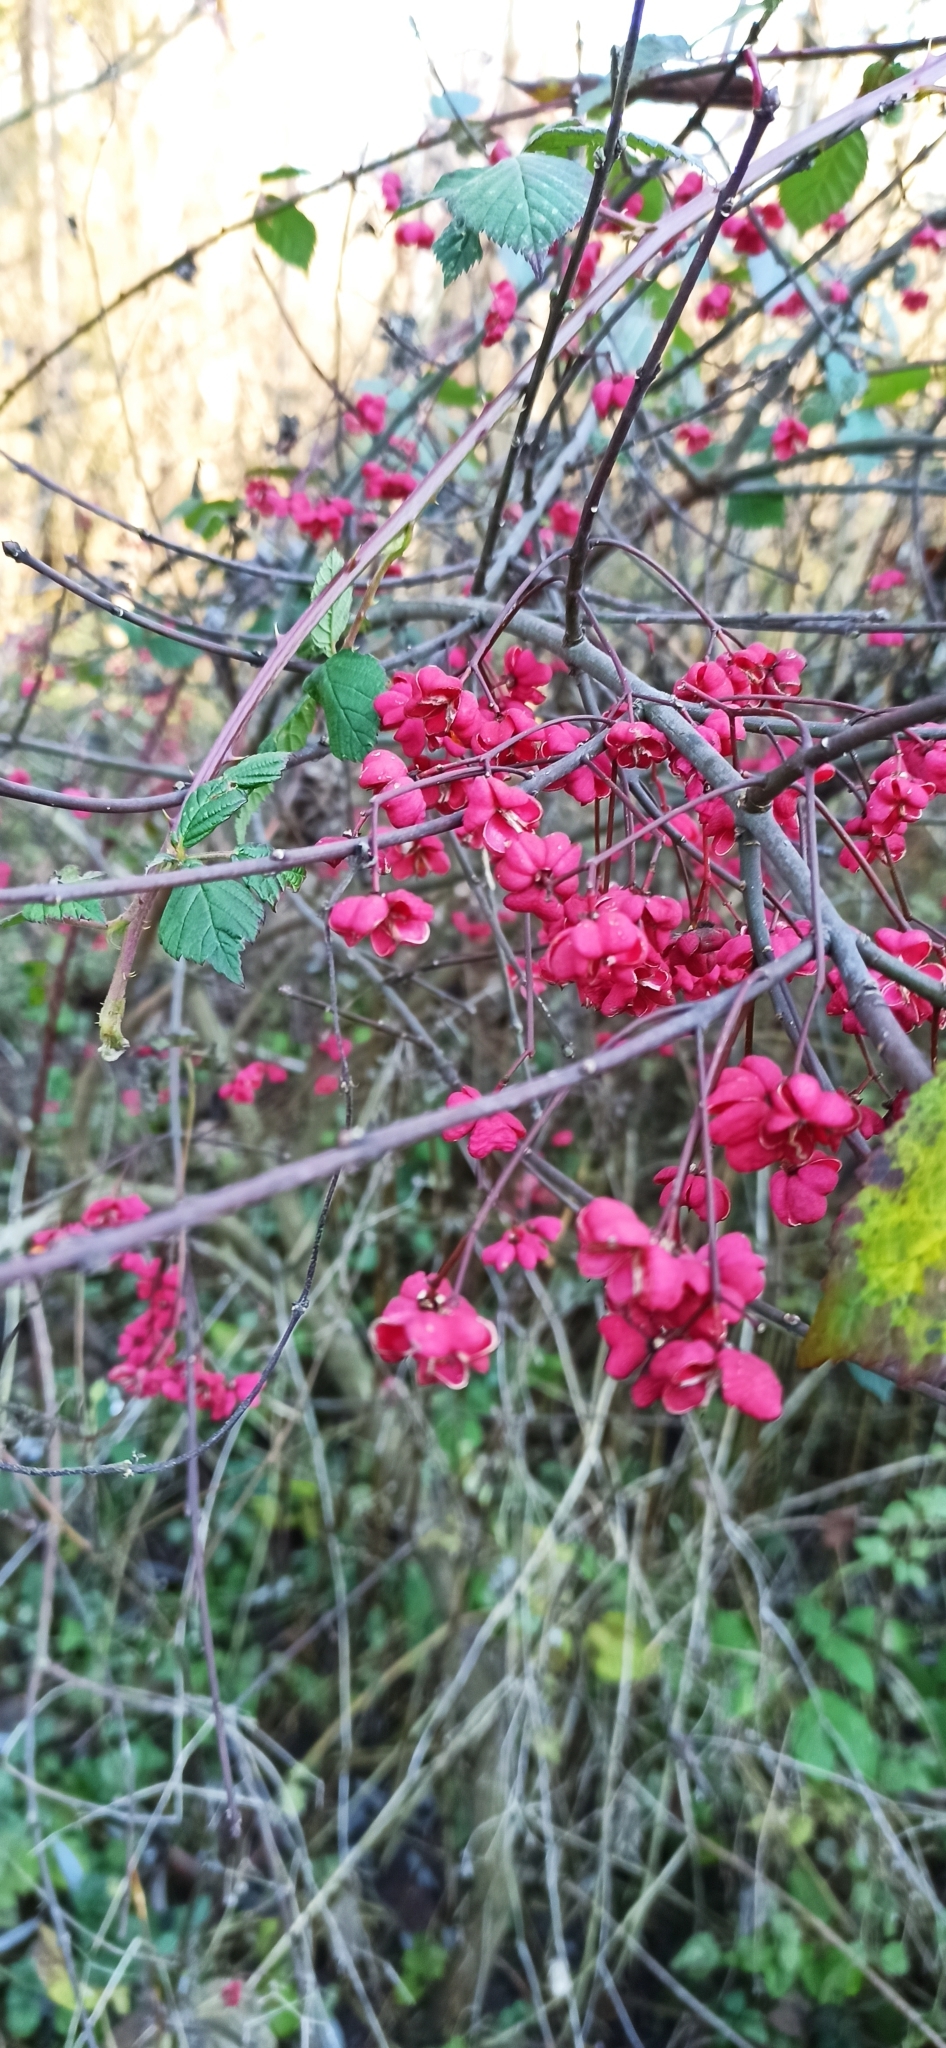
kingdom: Plantae
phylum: Tracheophyta
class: Magnoliopsida
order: Celastrales
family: Celastraceae
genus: Euonymus
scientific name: Euonymus europaeus
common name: Spindle
